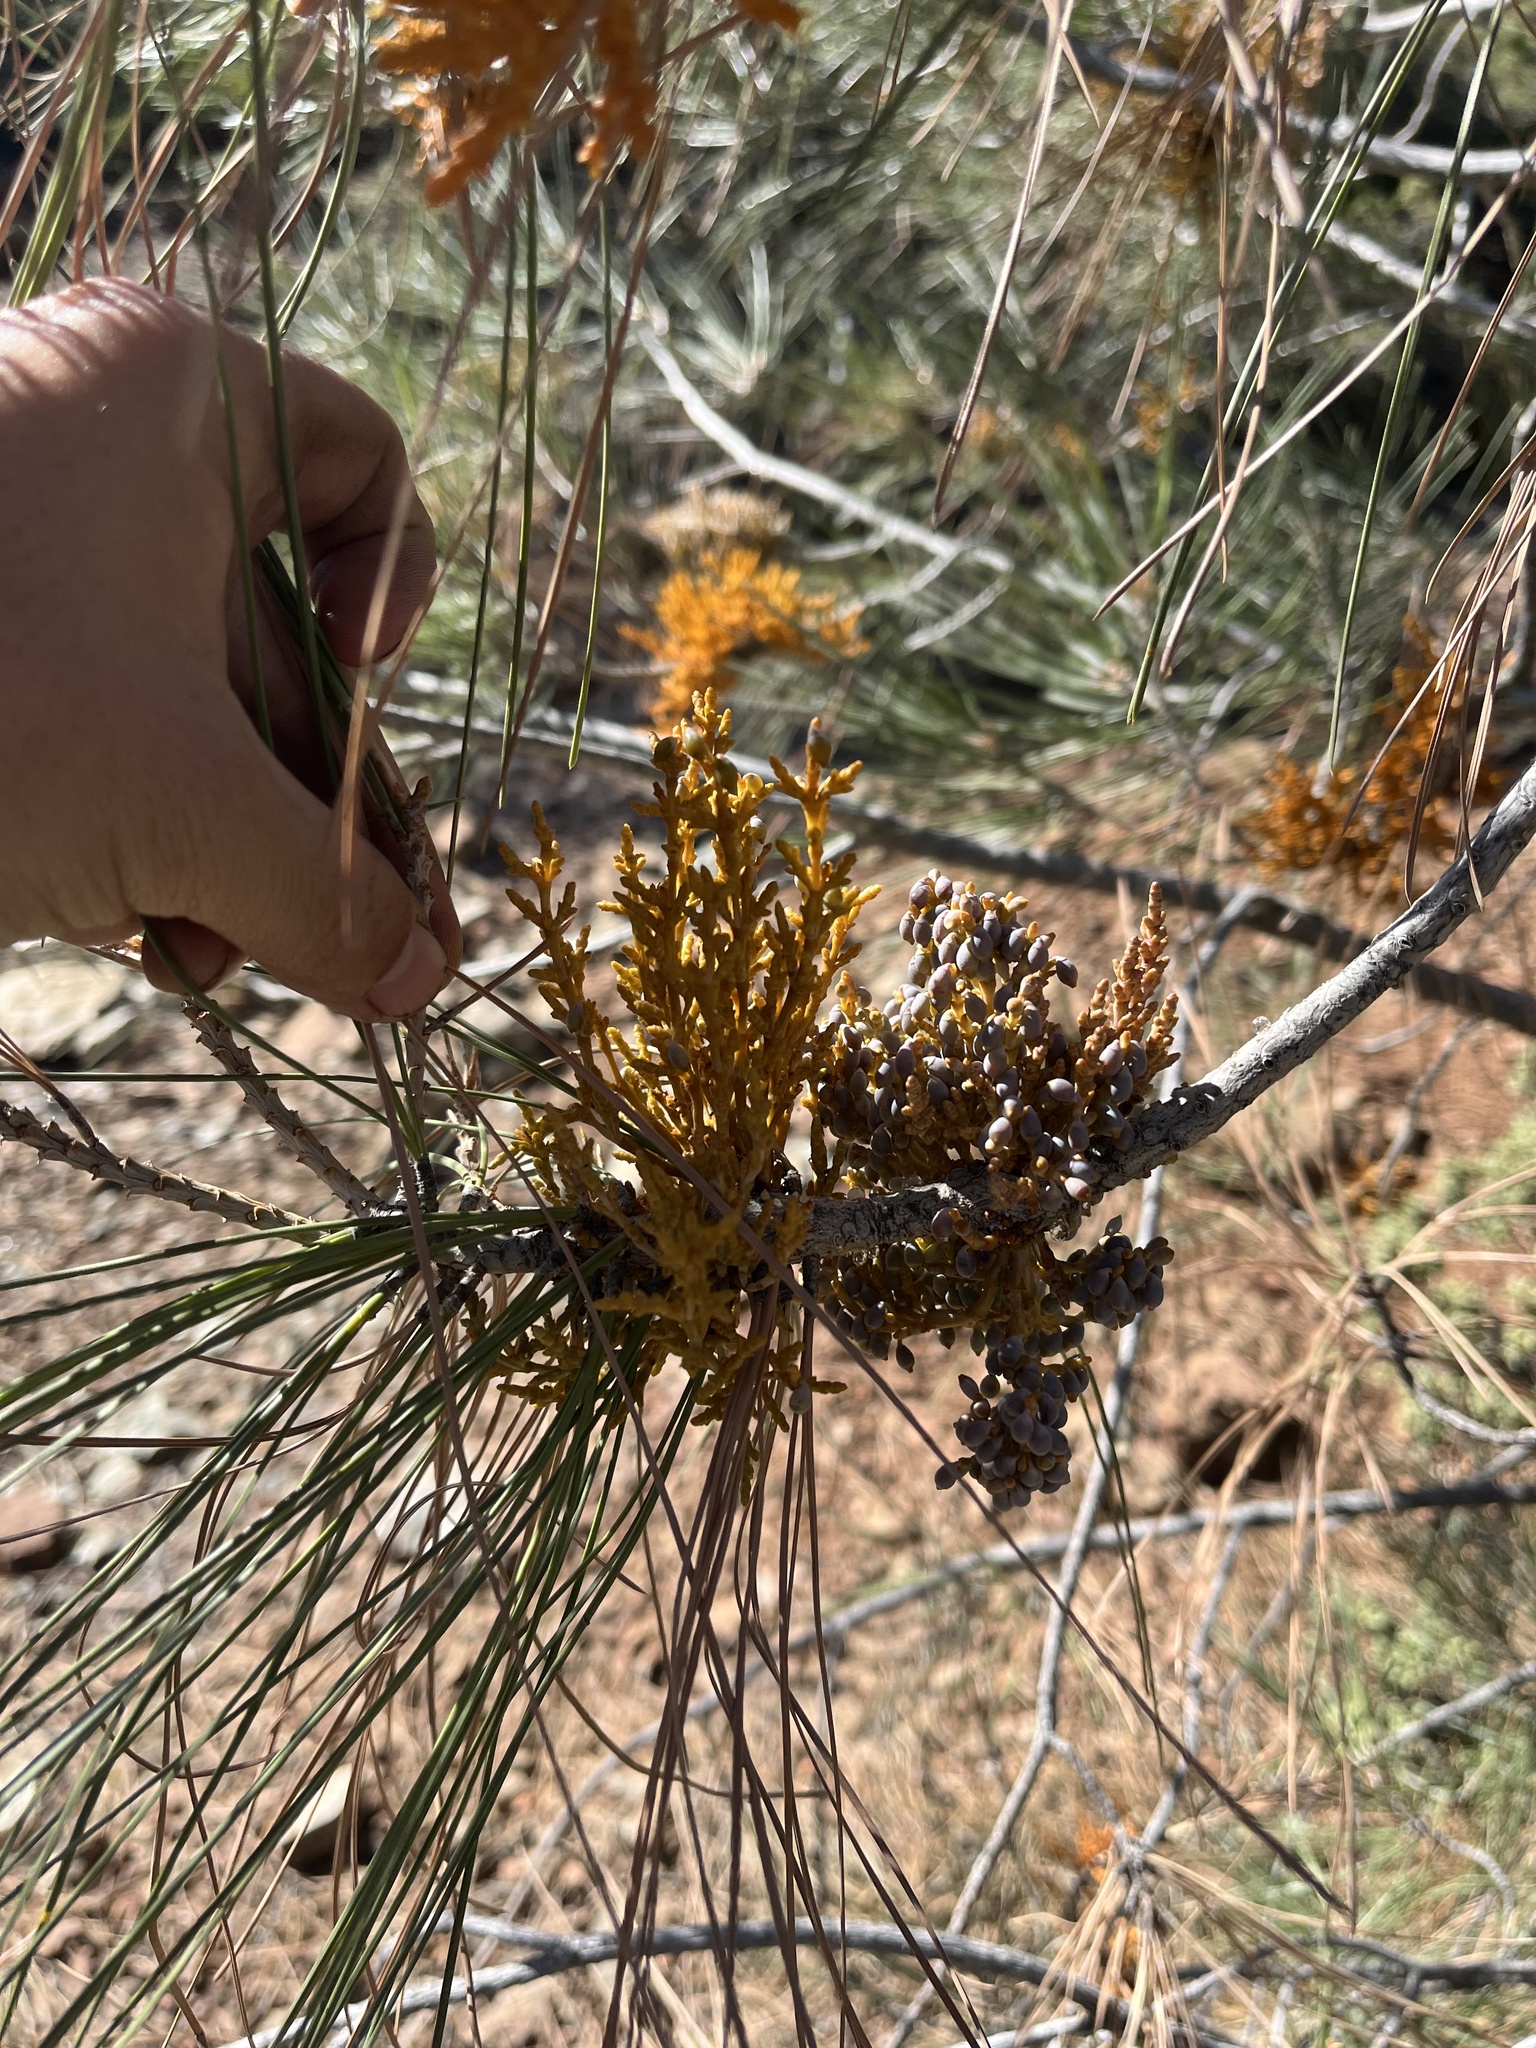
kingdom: Plantae
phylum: Tracheophyta
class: Magnoliopsida
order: Santalales
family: Viscaceae
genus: Arceuthobium
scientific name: Arceuthobium campylopodum
